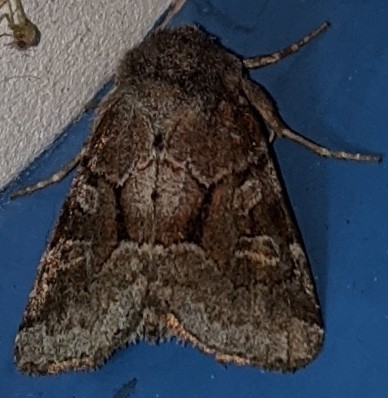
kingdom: Animalia
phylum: Arthropoda
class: Insecta
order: Lepidoptera
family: Noctuidae
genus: Oligia
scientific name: Oligia minuscula
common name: Small brocade
